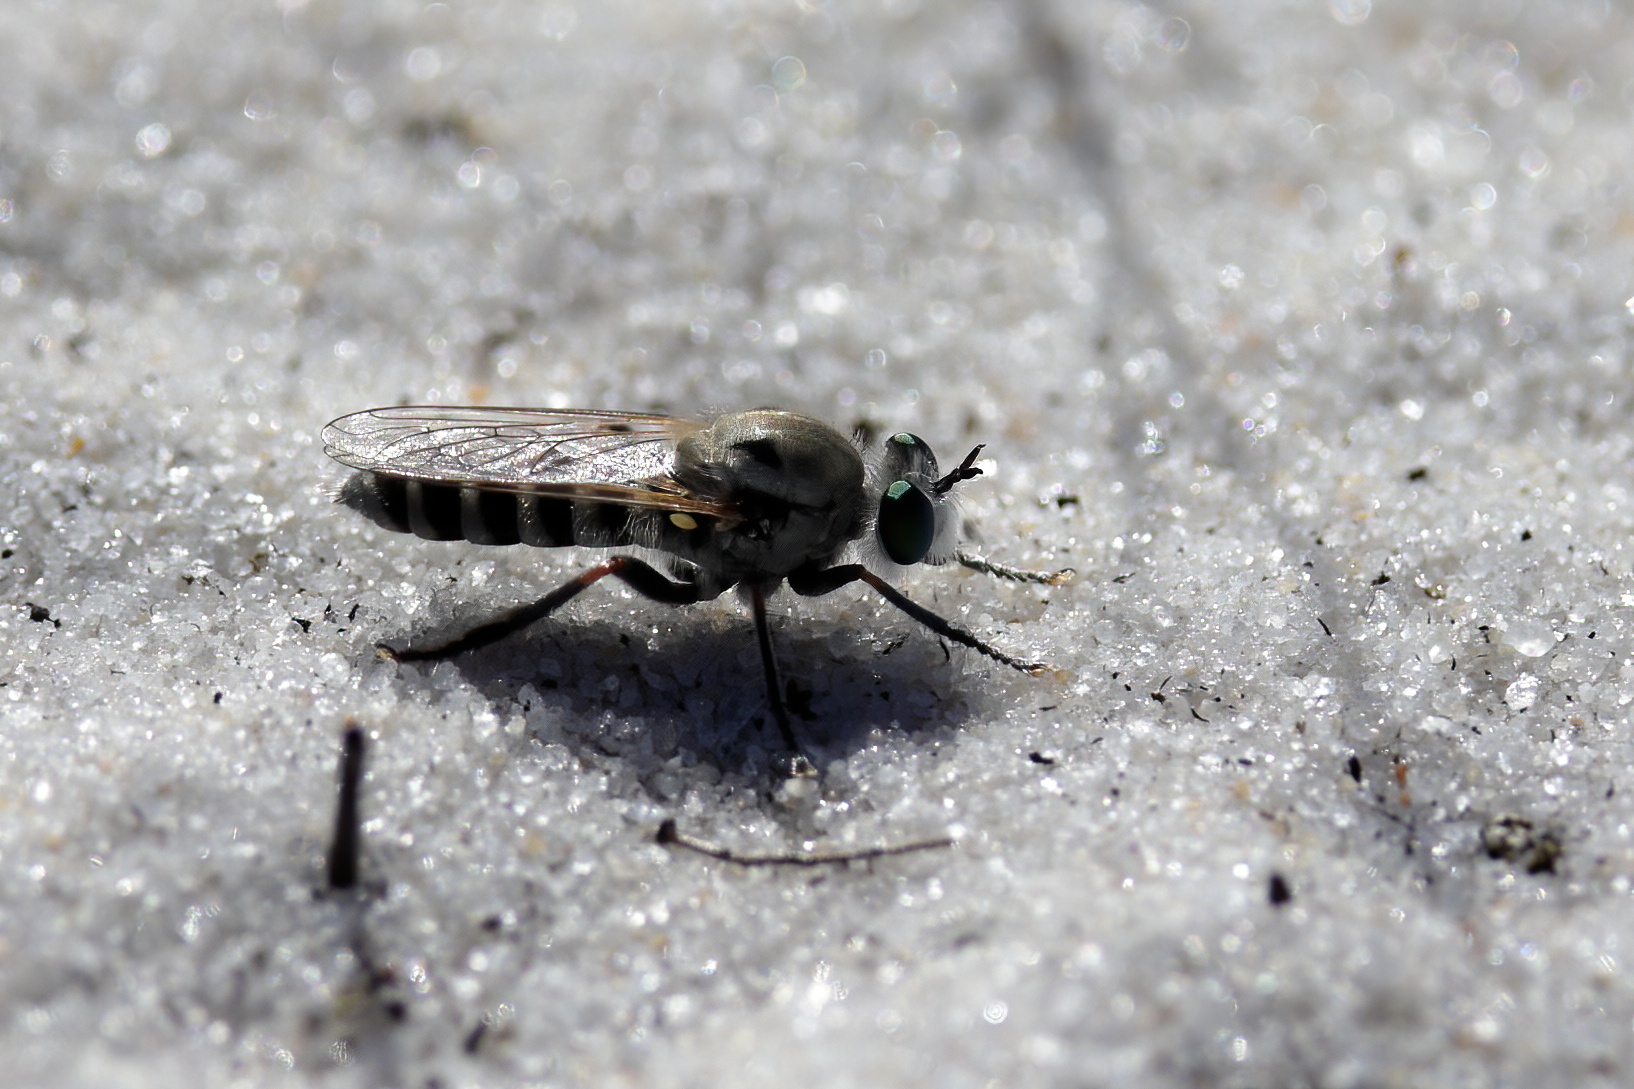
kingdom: Animalia
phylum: Arthropoda
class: Insecta
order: Diptera
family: Asilidae
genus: Laphystia
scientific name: Laphystia texensis
